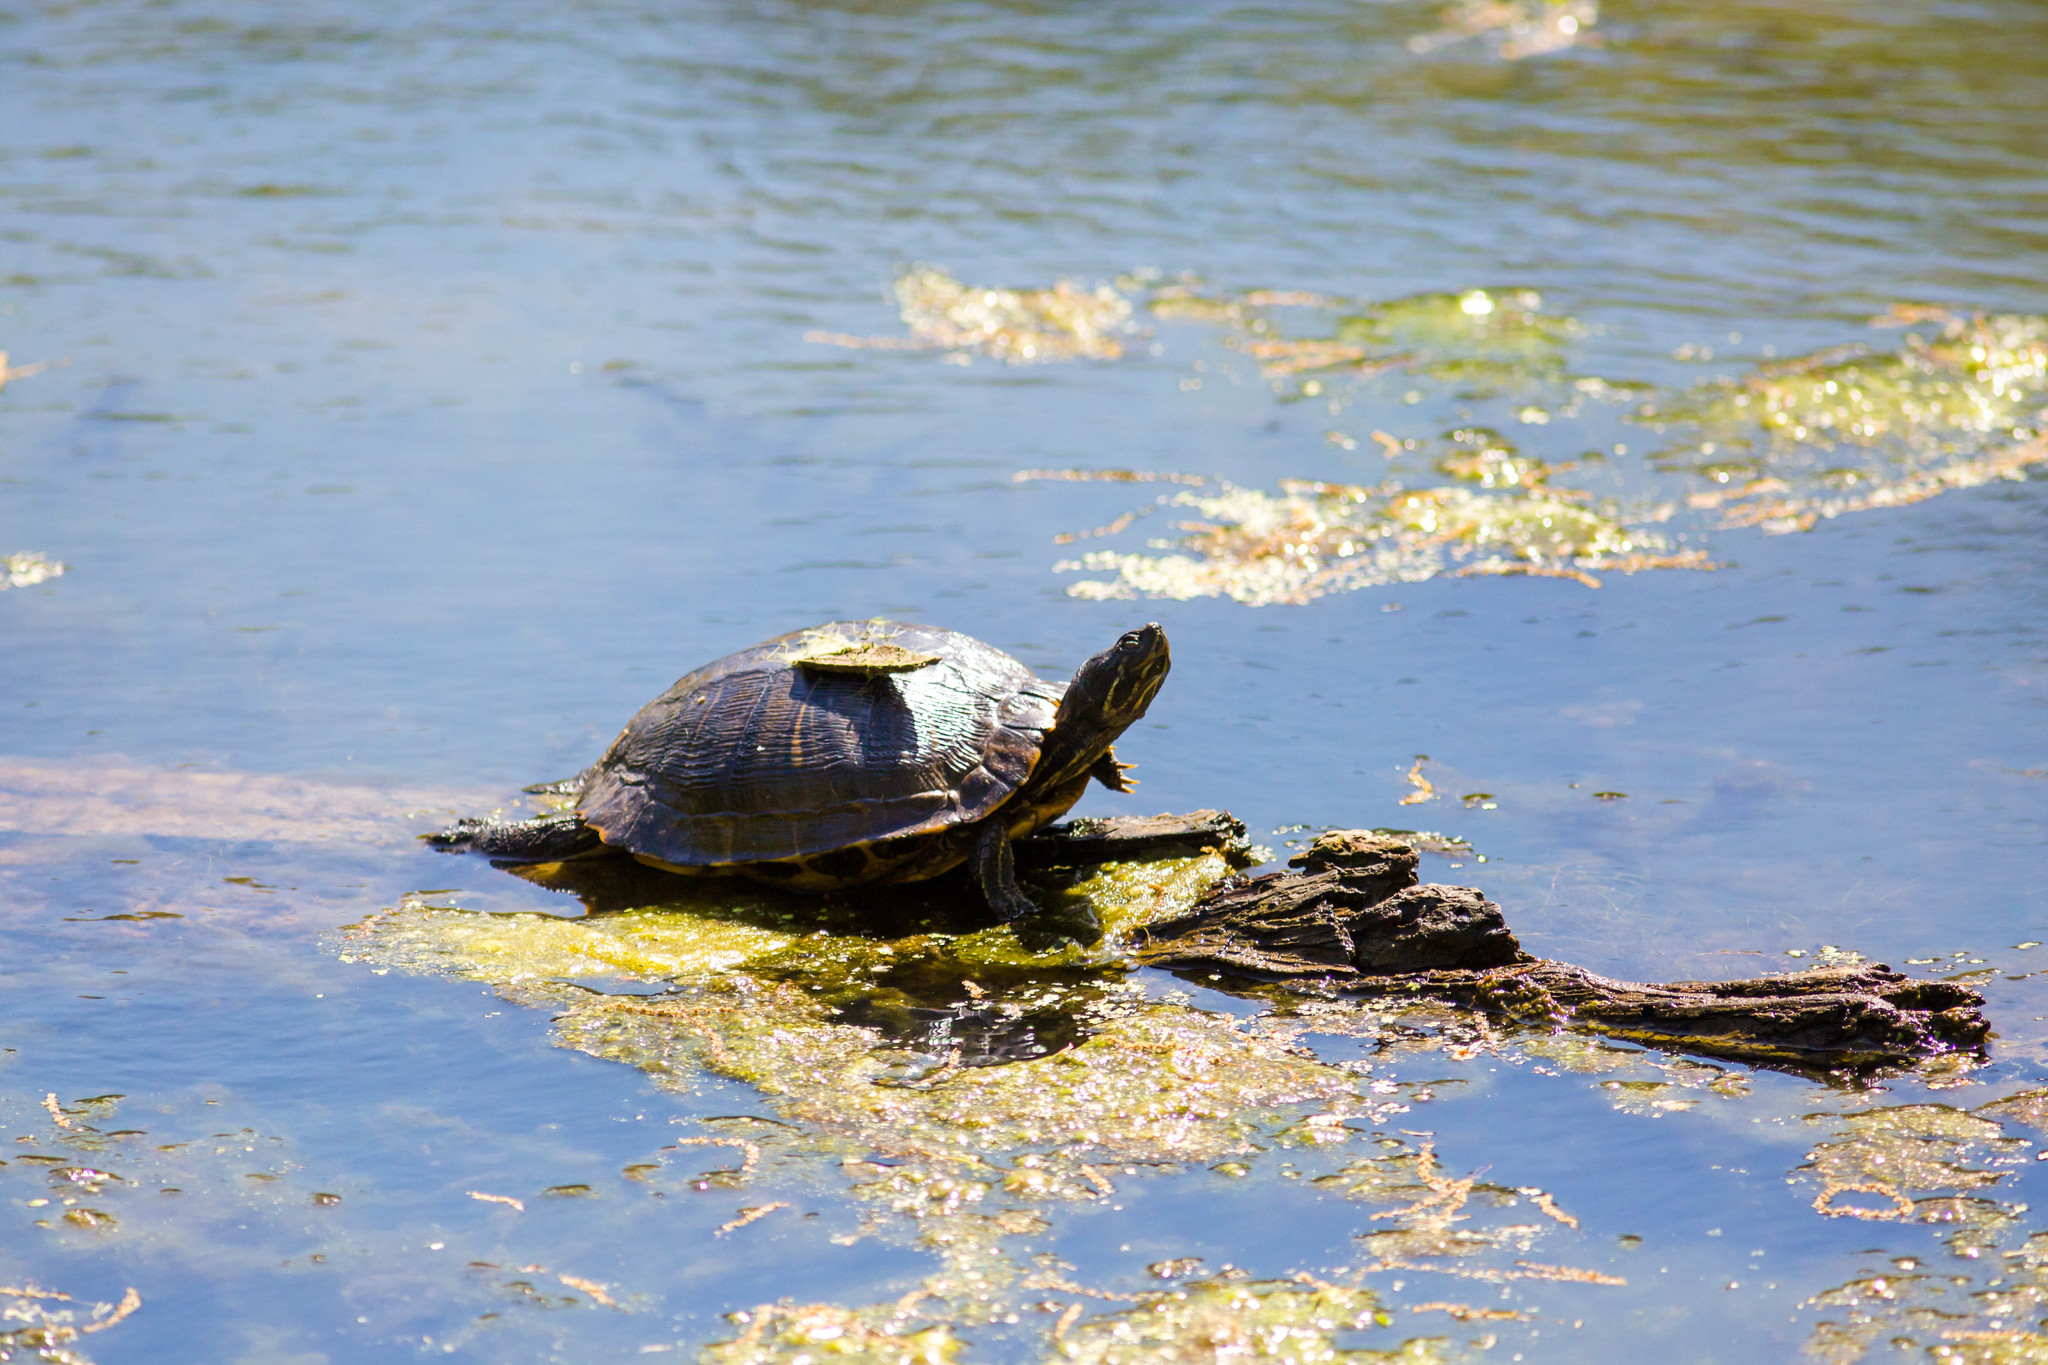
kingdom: Animalia
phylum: Chordata
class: Testudines
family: Emydidae
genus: Trachemys
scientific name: Trachemys scripta
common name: Slider
